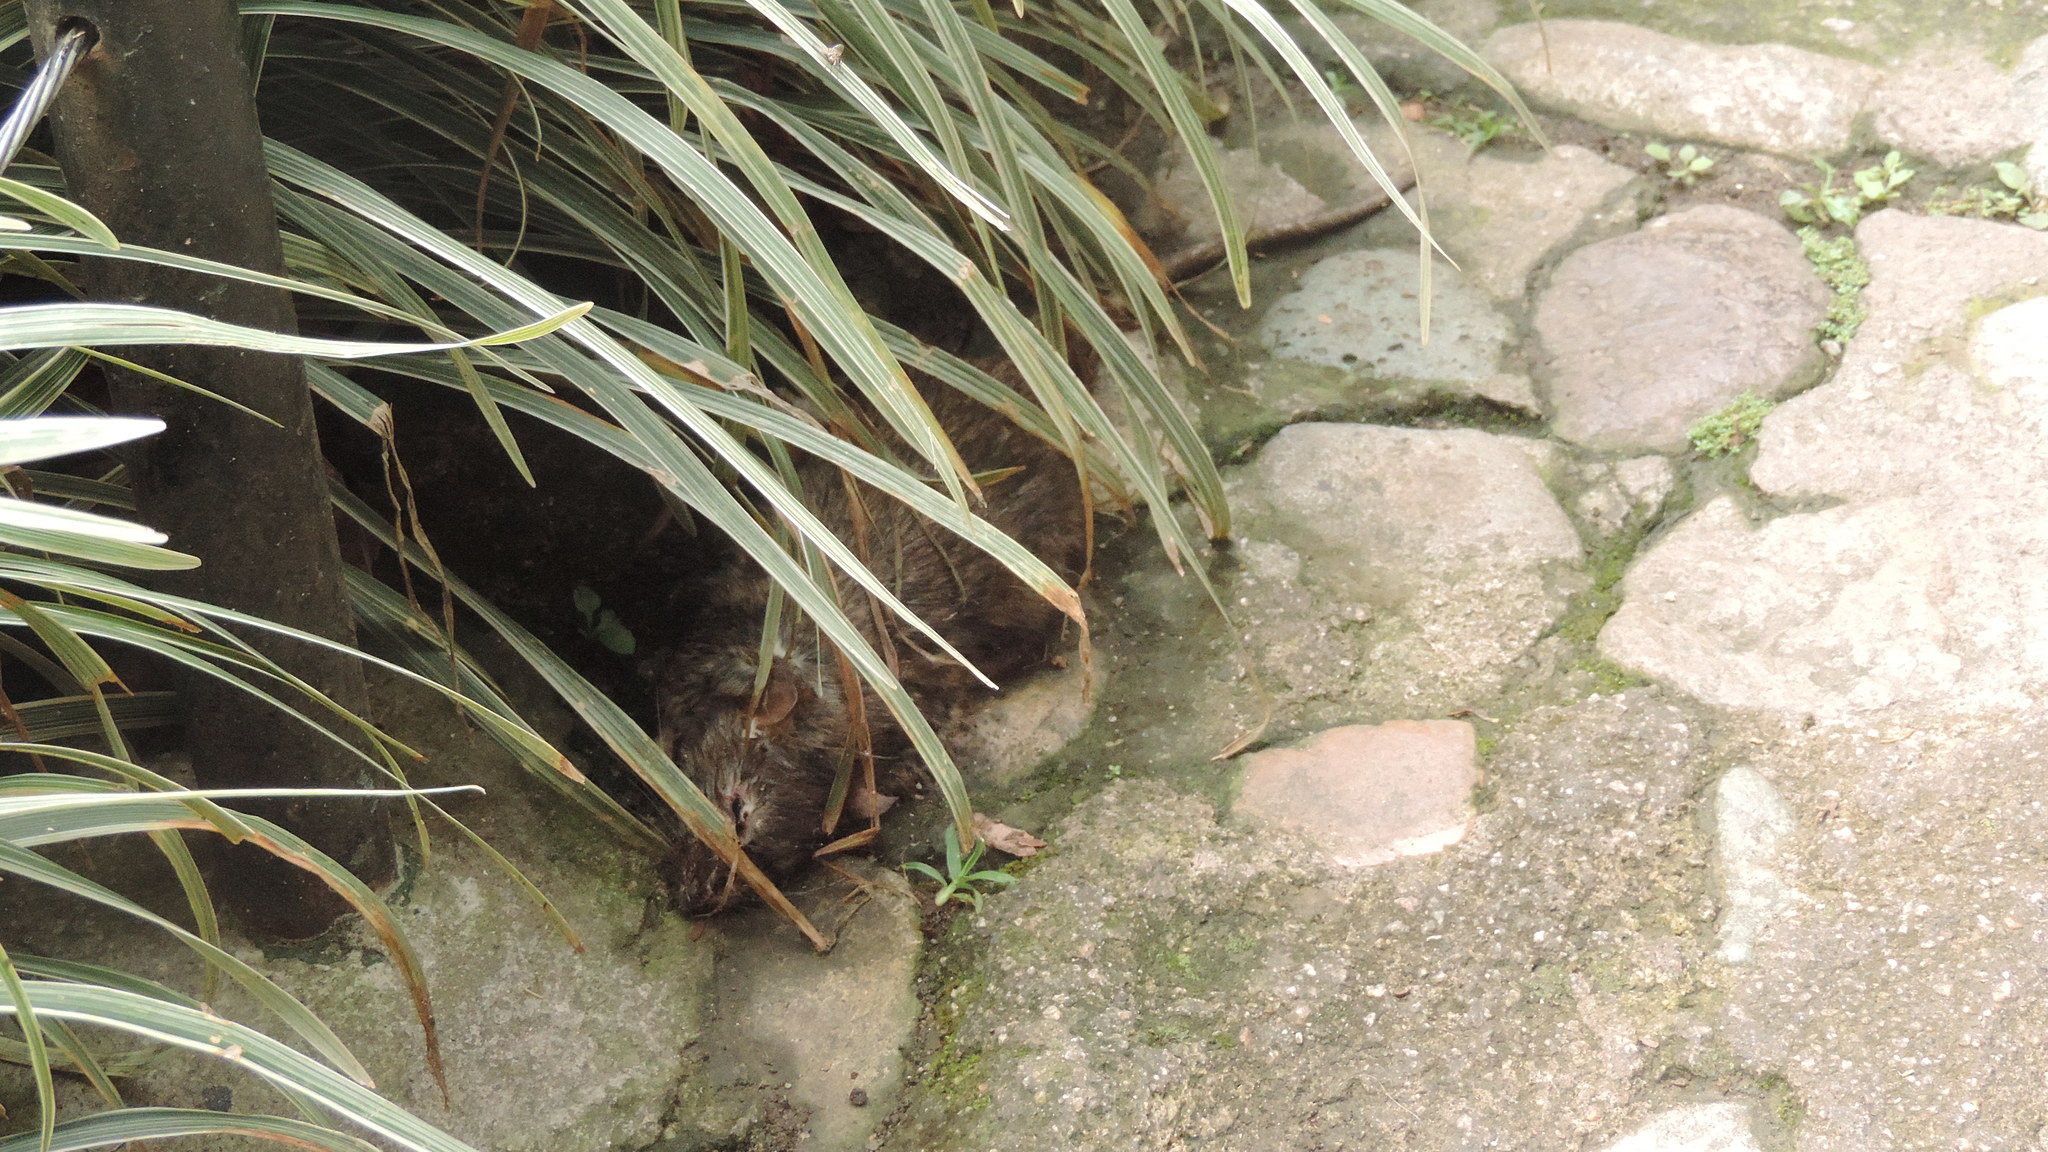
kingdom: Animalia
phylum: Chordata
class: Mammalia
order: Rodentia
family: Muridae
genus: Rattus
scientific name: Rattus norvegicus
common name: Brown rat
